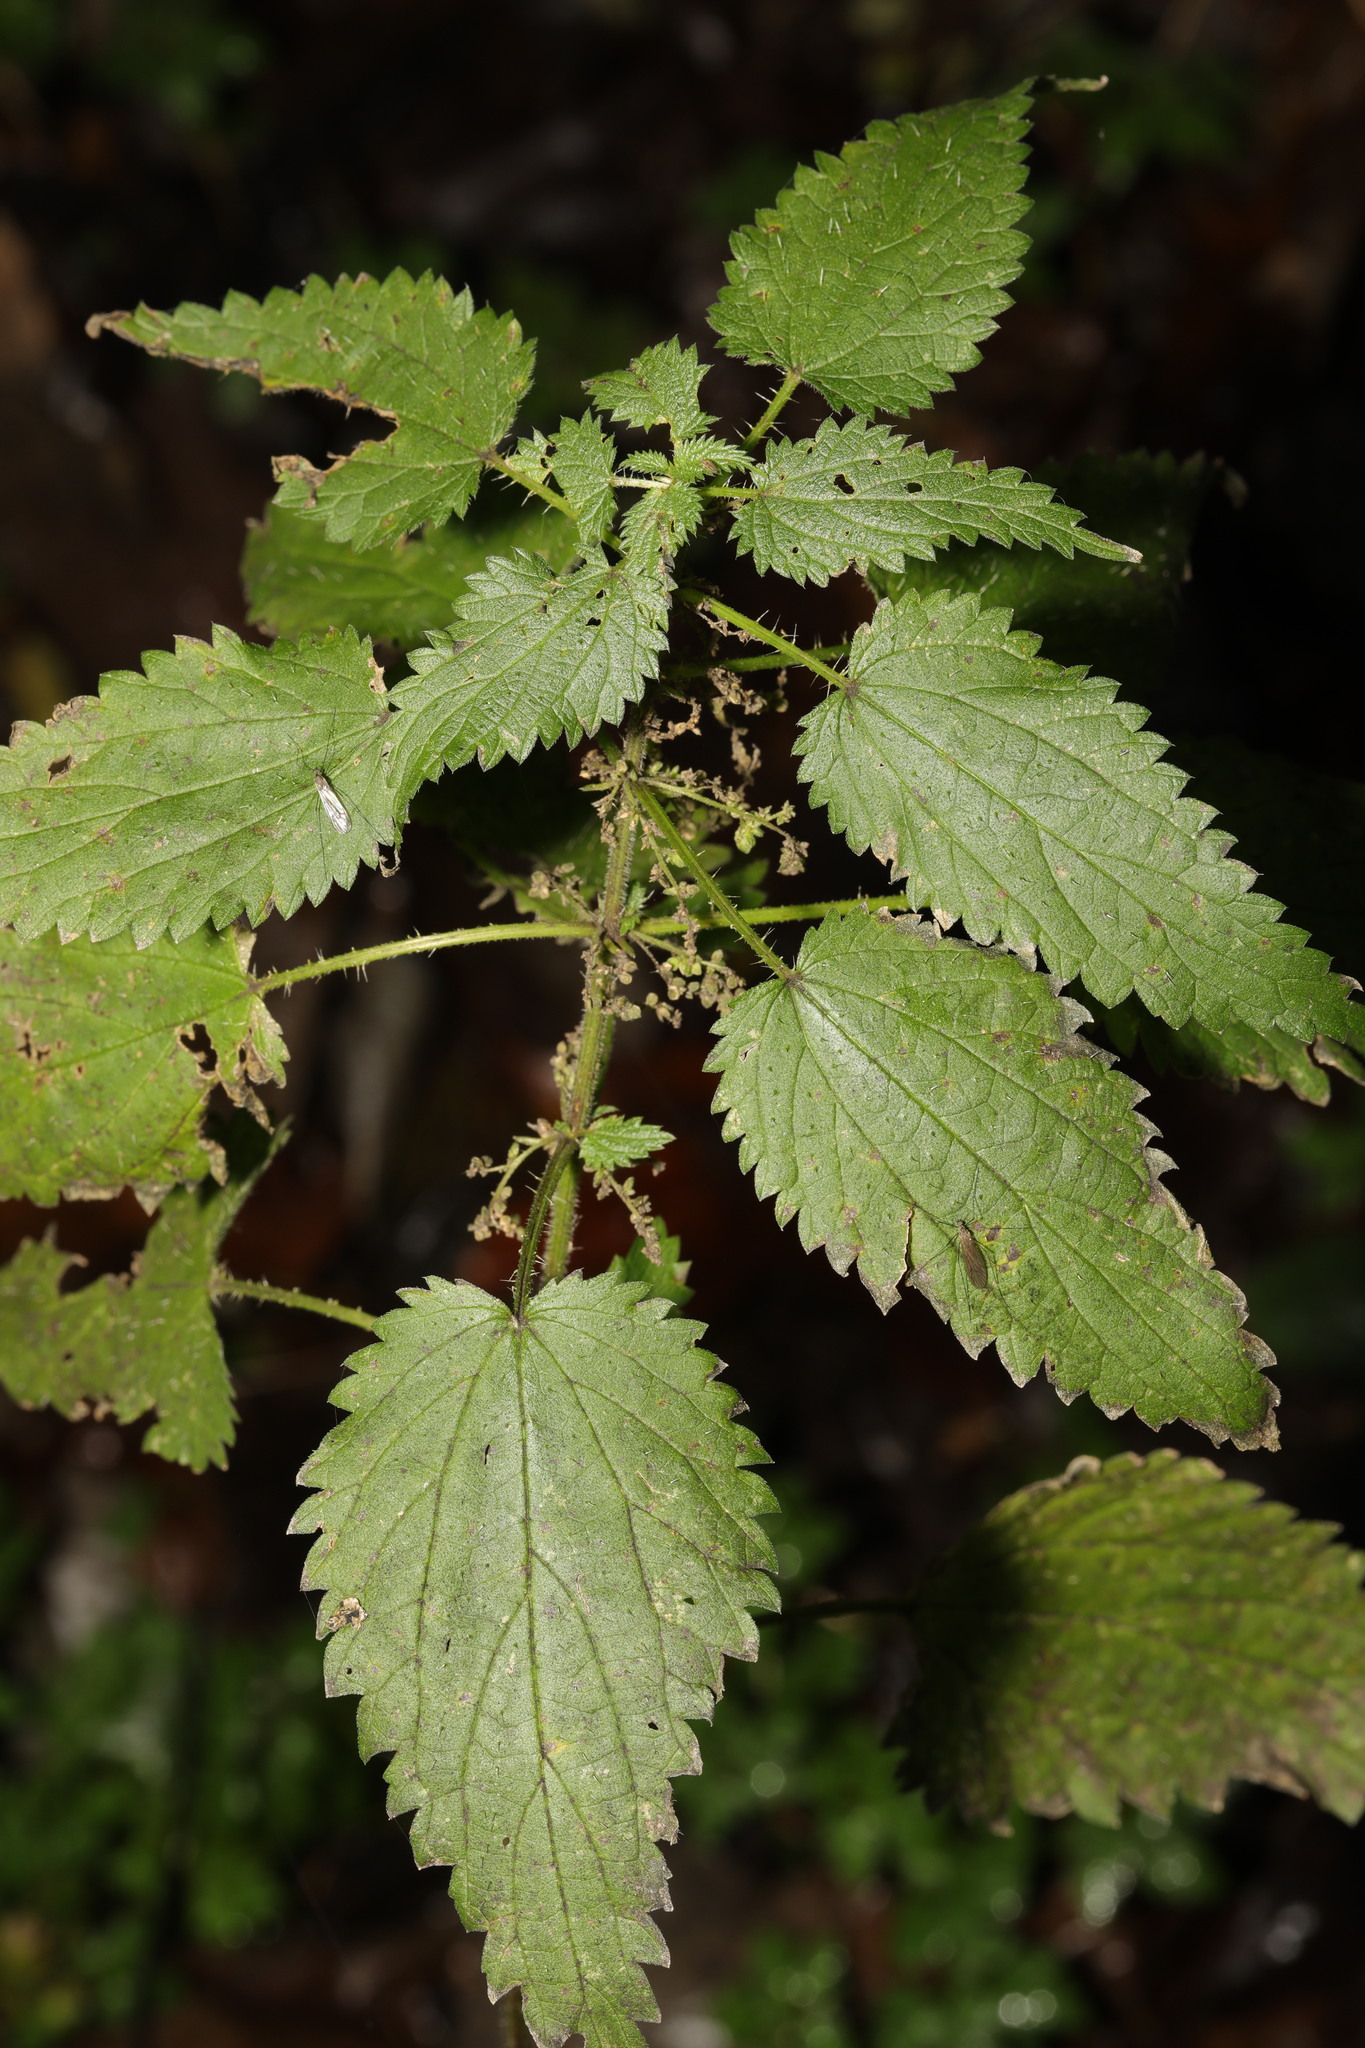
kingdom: Plantae
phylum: Tracheophyta
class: Magnoliopsida
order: Rosales
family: Urticaceae
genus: Urtica
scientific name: Urtica dioica
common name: Common nettle
